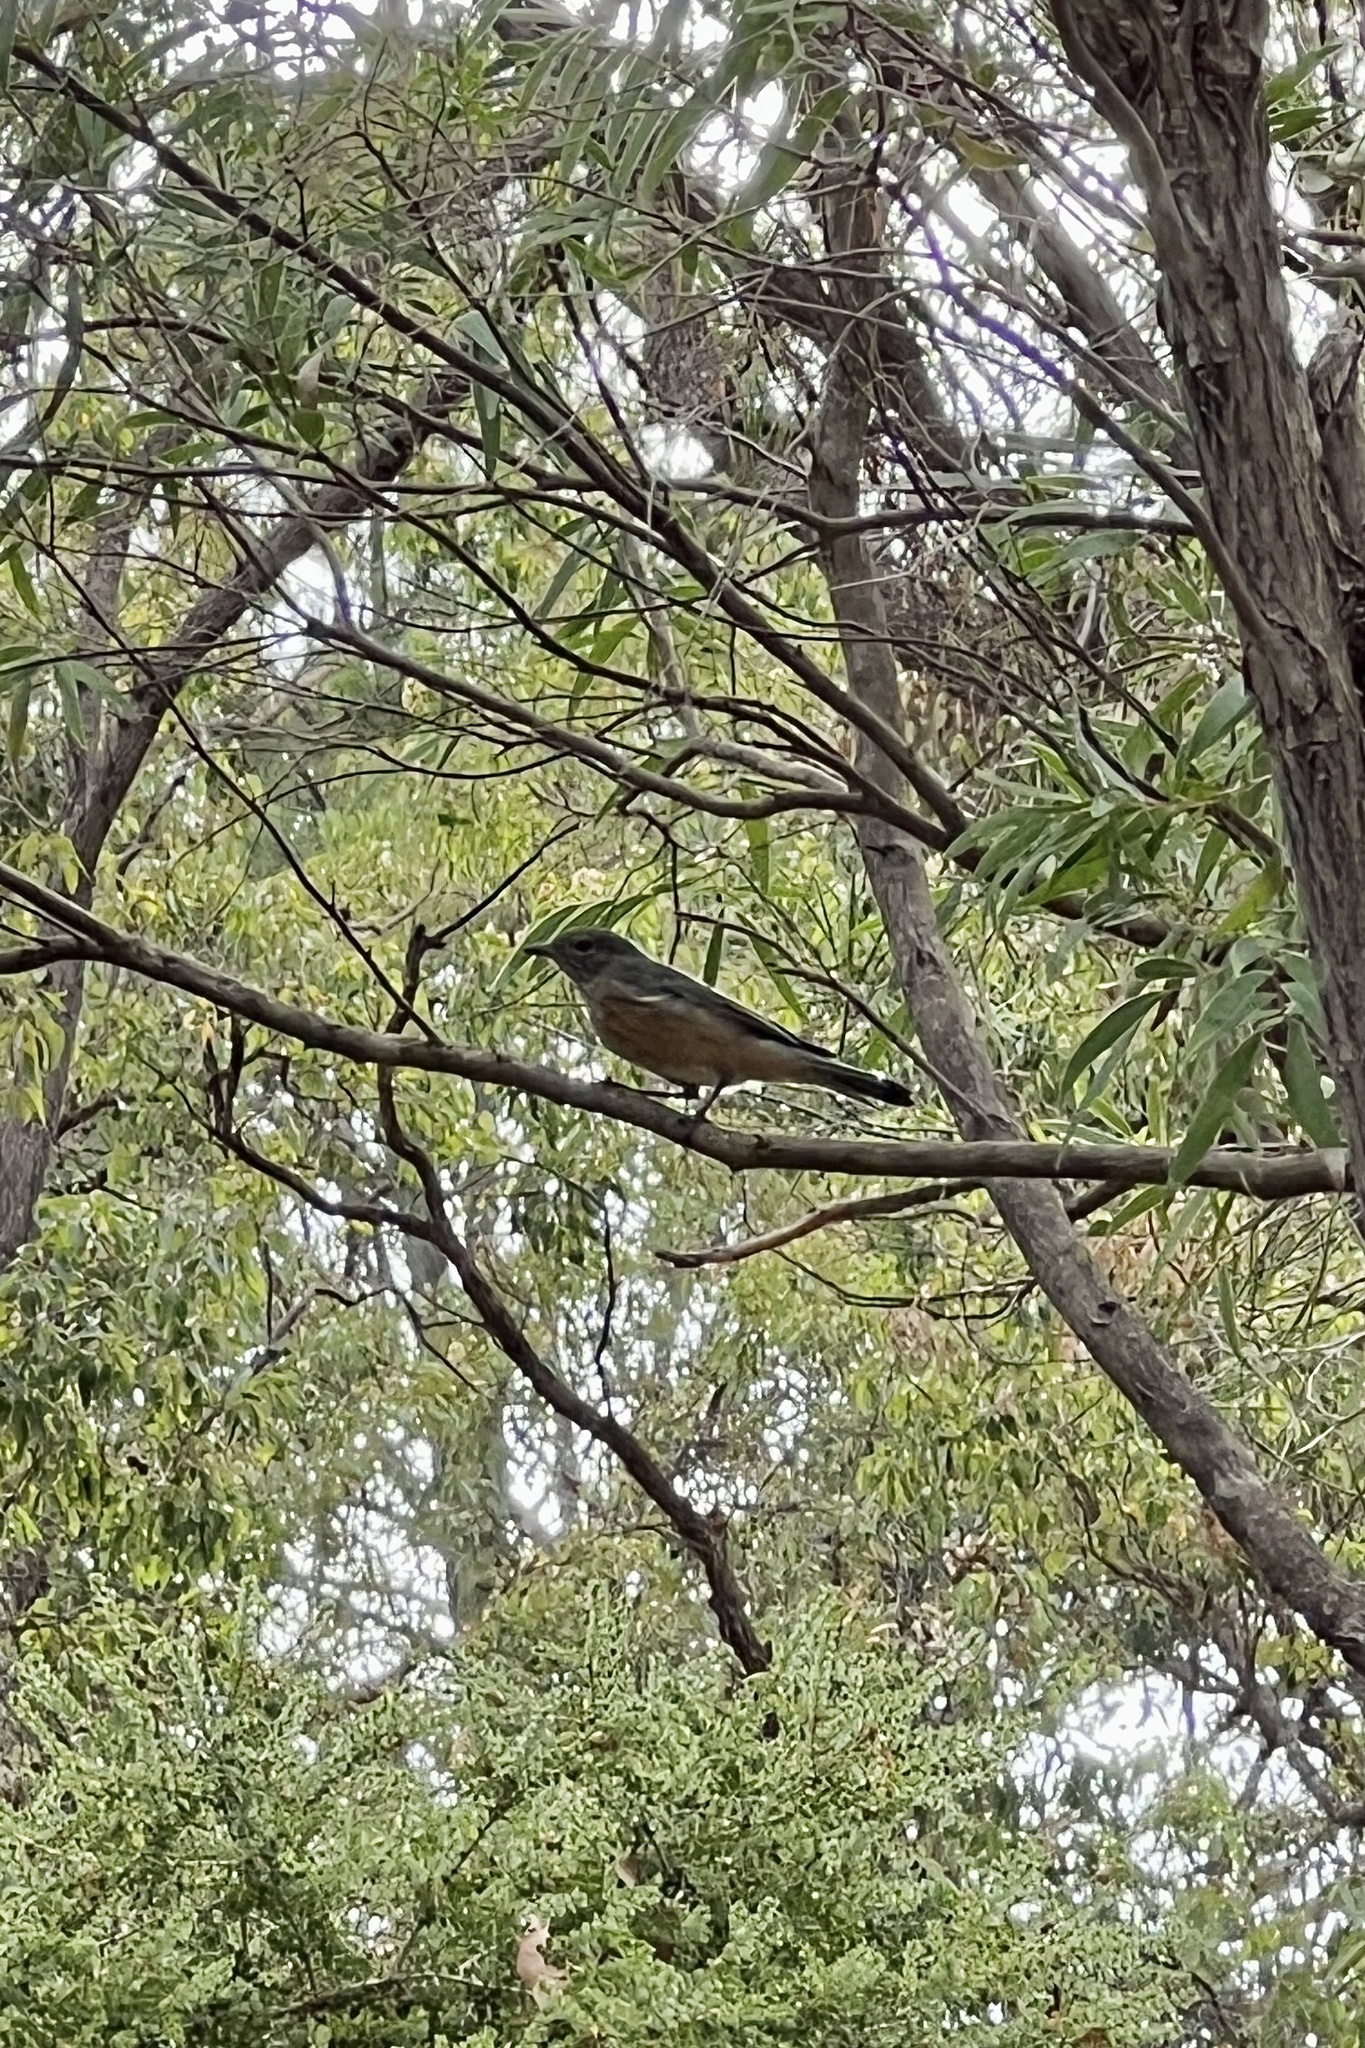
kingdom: Animalia
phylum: Chordata
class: Aves
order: Passeriformes
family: Pachycephalidae
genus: Pachycephala
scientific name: Pachycephala rufiventris
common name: Rufous whistler
